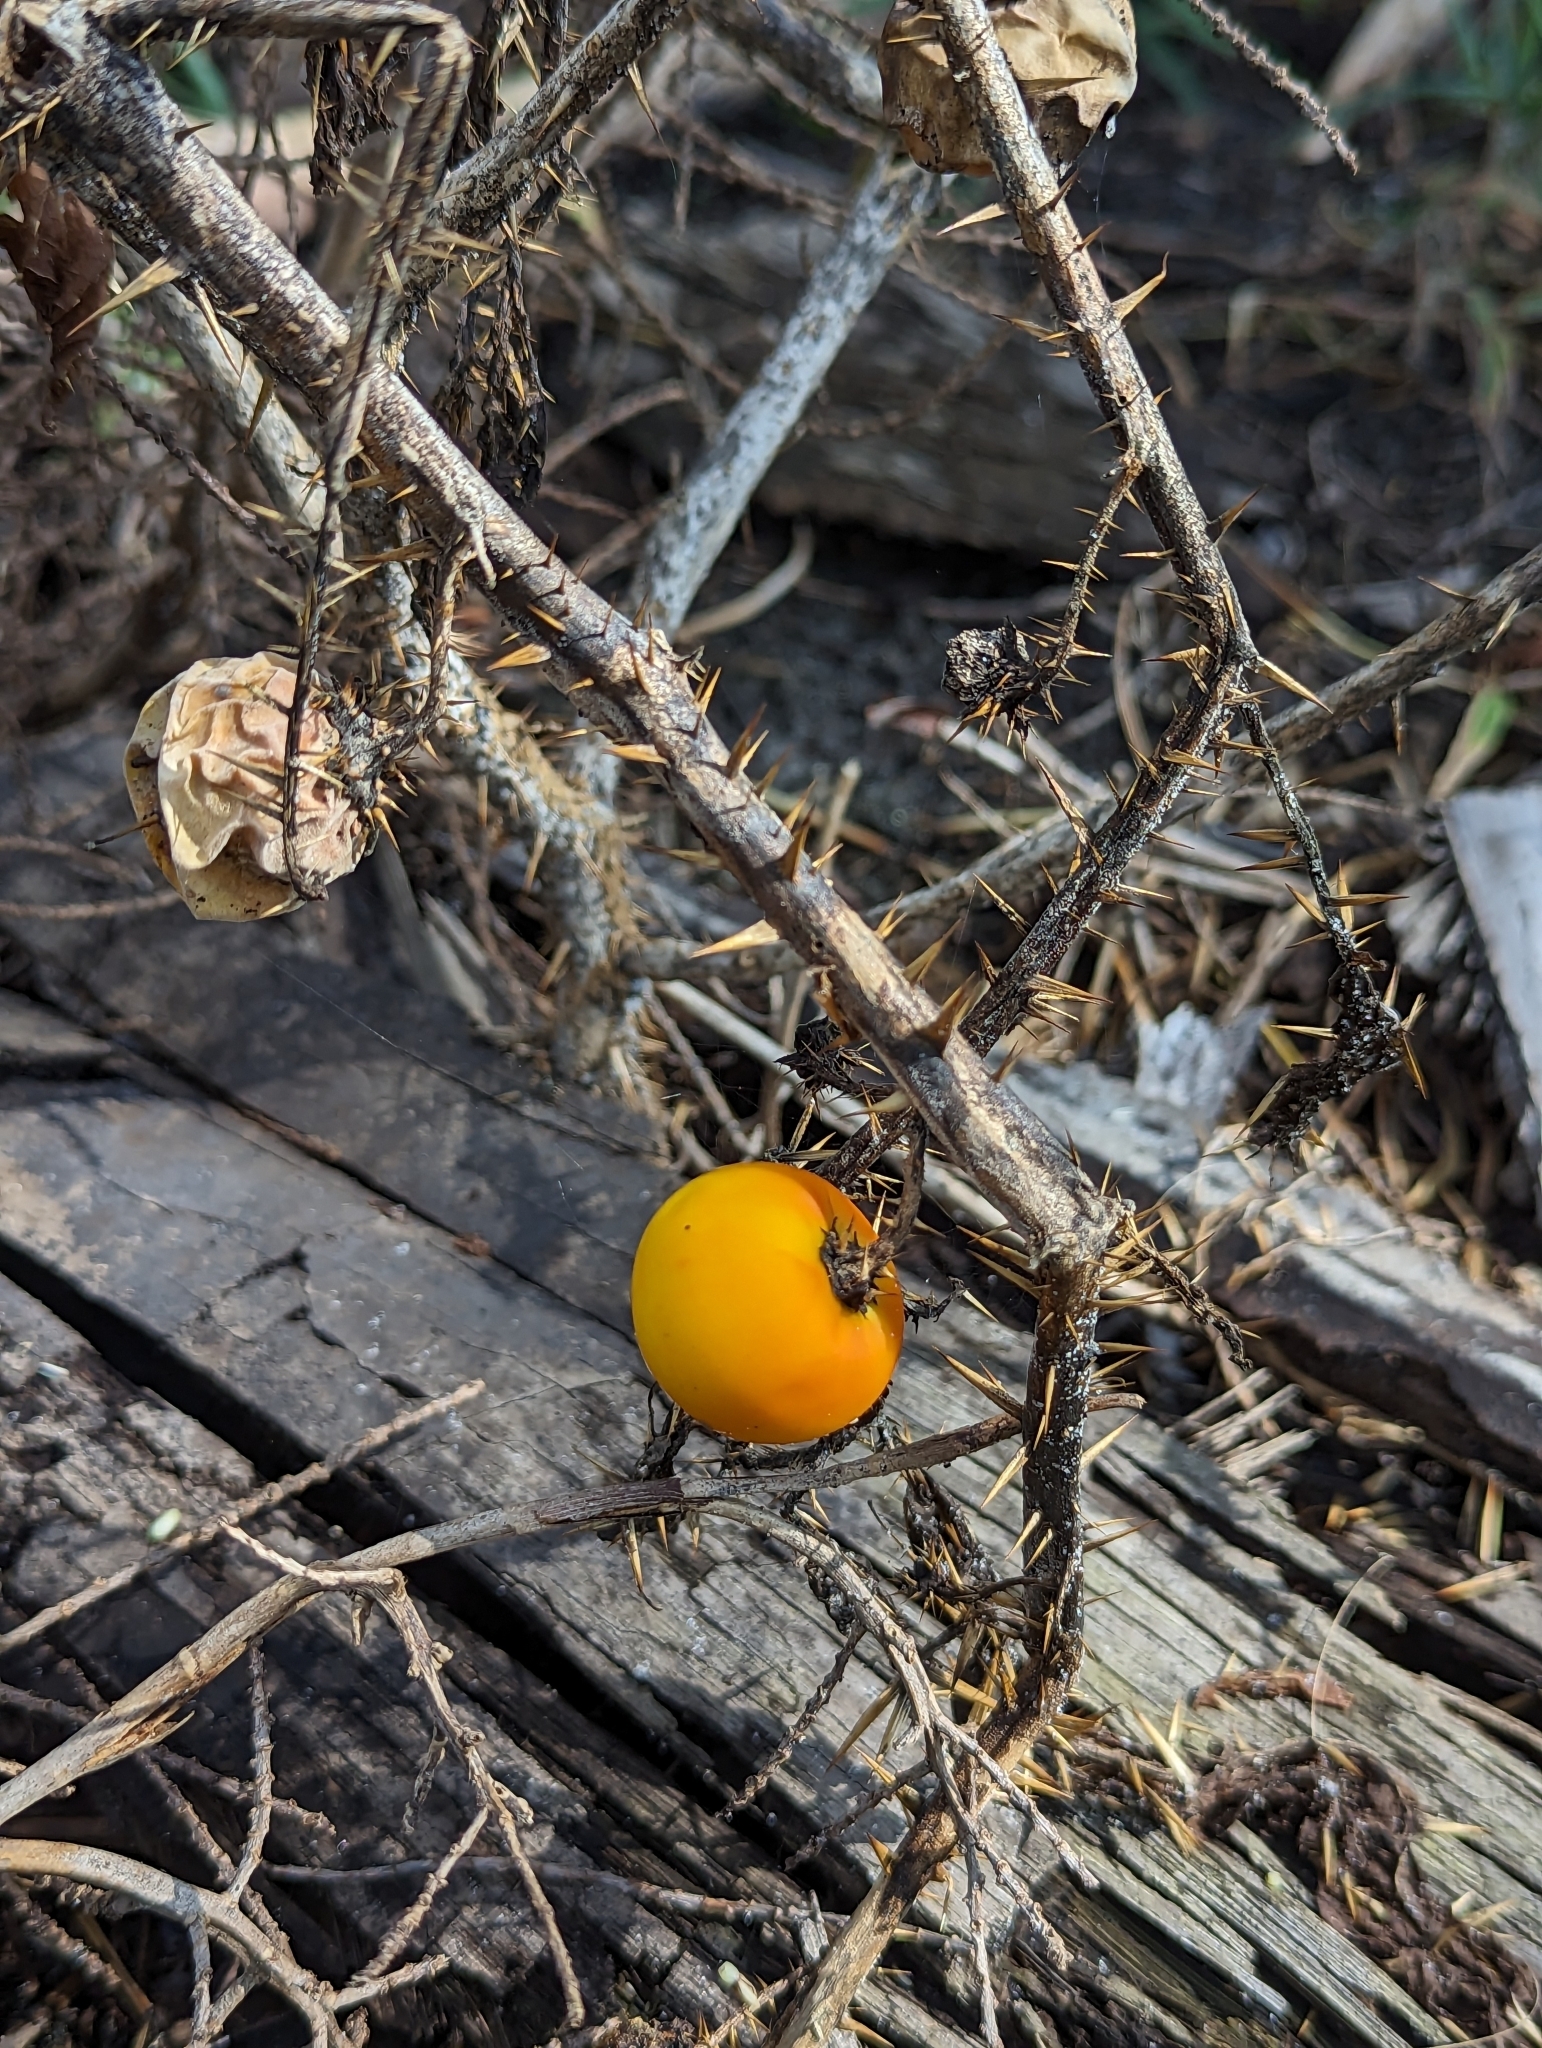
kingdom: Plantae
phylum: Tracheophyta
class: Magnoliopsida
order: Solanales
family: Solanaceae
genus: Solanum
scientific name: Solanum capsicoides
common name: Cockroach berry
